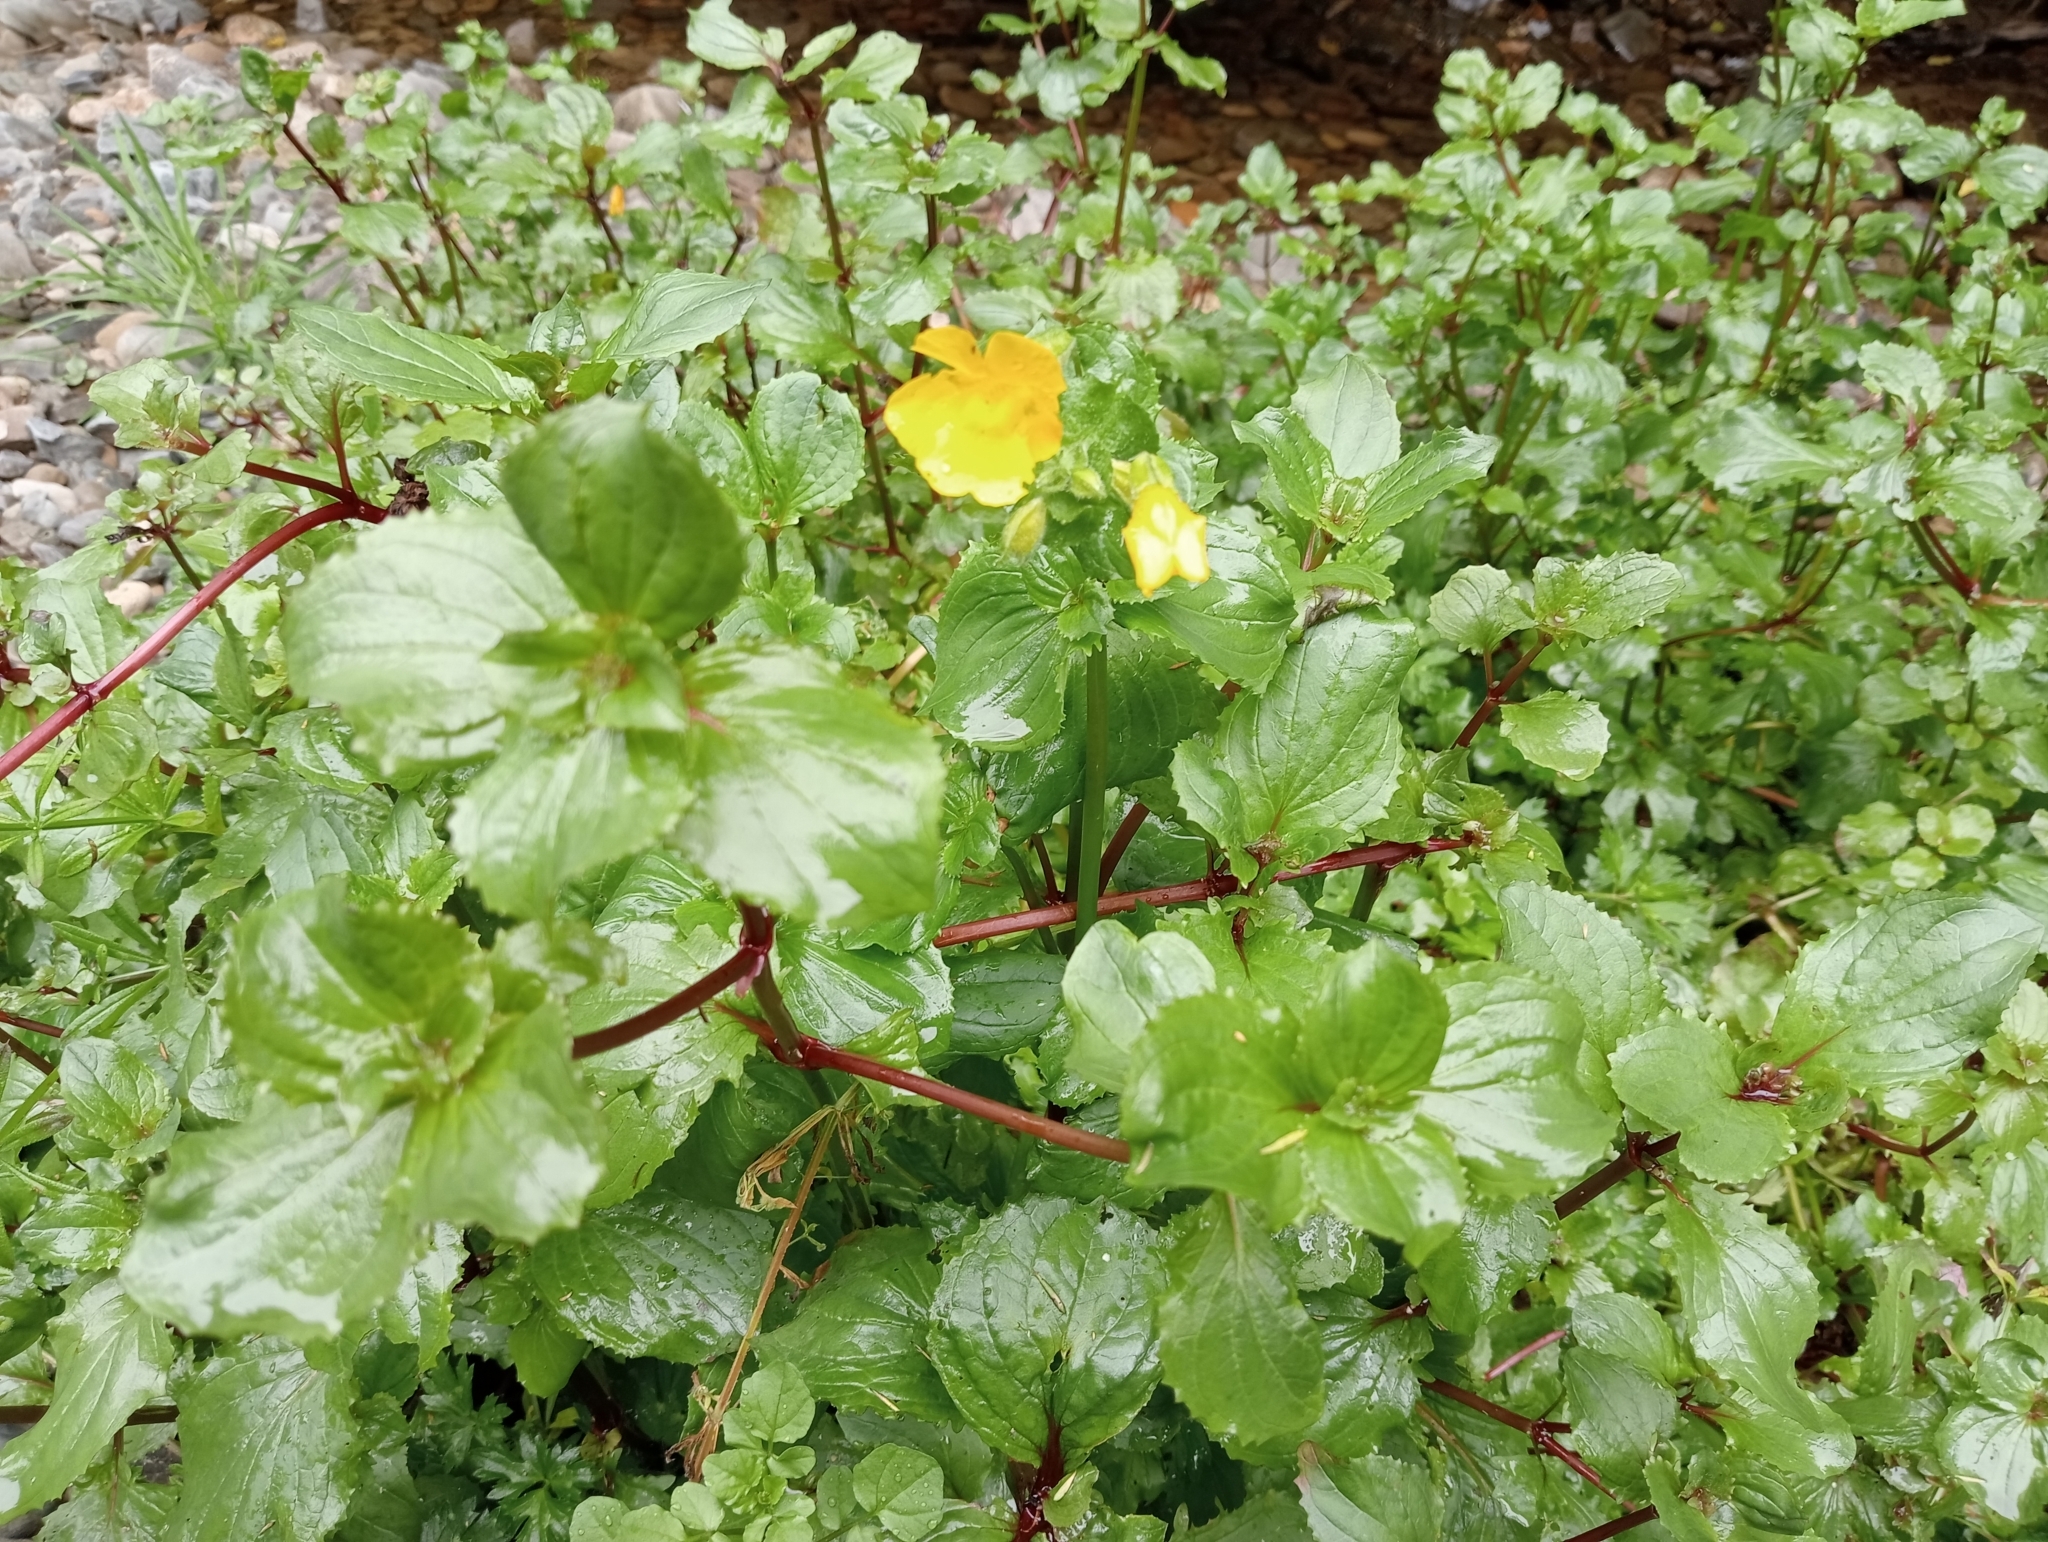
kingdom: Plantae
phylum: Tracheophyta
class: Magnoliopsida
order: Lamiales
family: Phrymaceae
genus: Erythranthe
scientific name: Erythranthe guttata
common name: Monkeyflower
